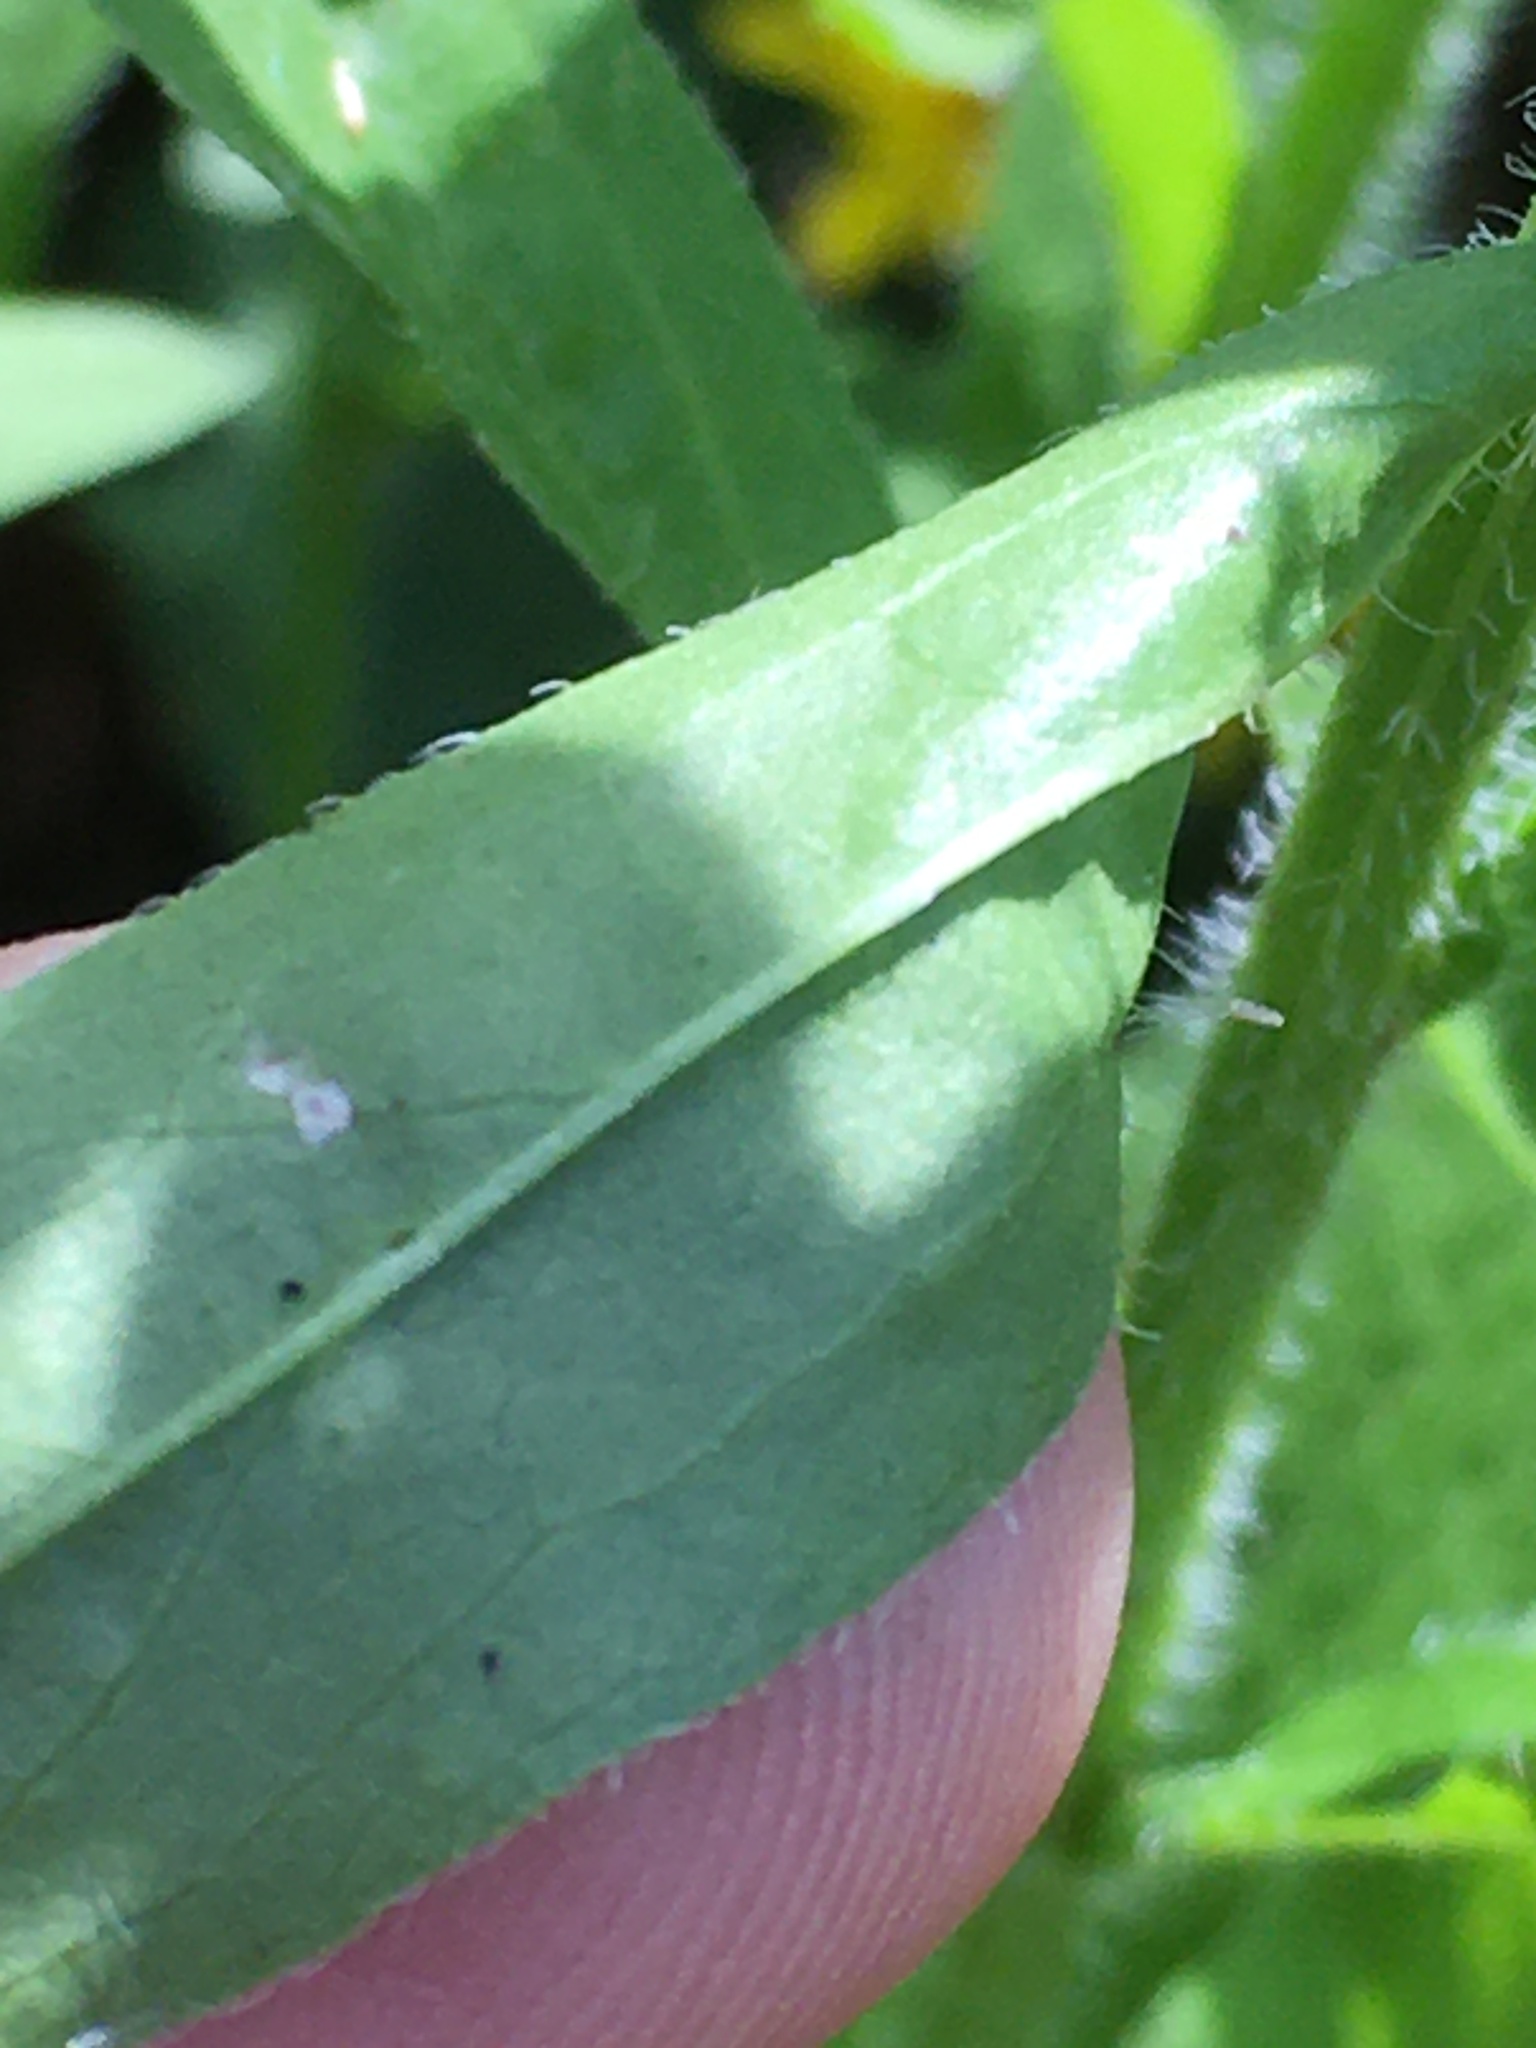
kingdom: Plantae
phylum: Tracheophyta
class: Magnoliopsida
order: Asterales
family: Asteraceae
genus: Erigeron
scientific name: Erigeron annuus
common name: Tall fleabane
